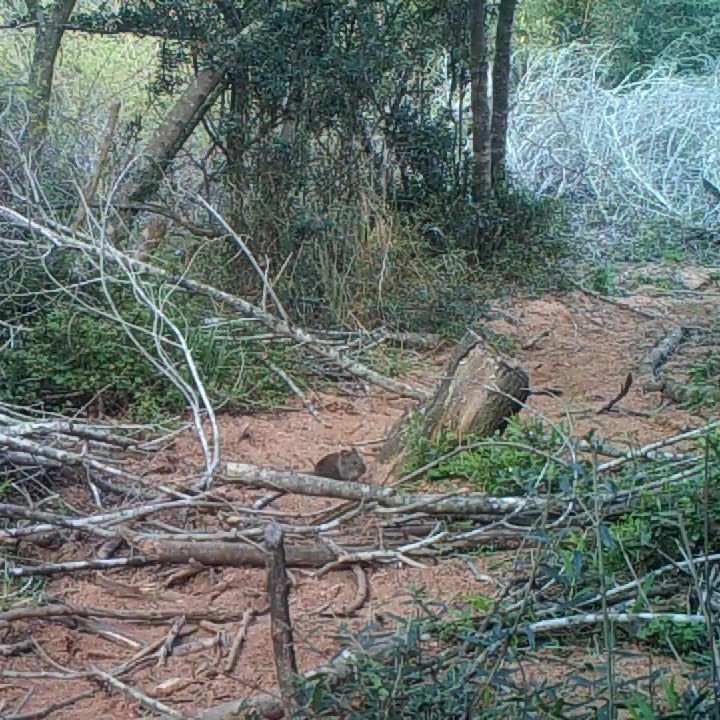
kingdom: Animalia
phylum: Chordata
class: Mammalia
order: Rodentia
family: Muridae
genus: Otomys
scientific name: Otomys irroratus
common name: Southern african vlei rat
